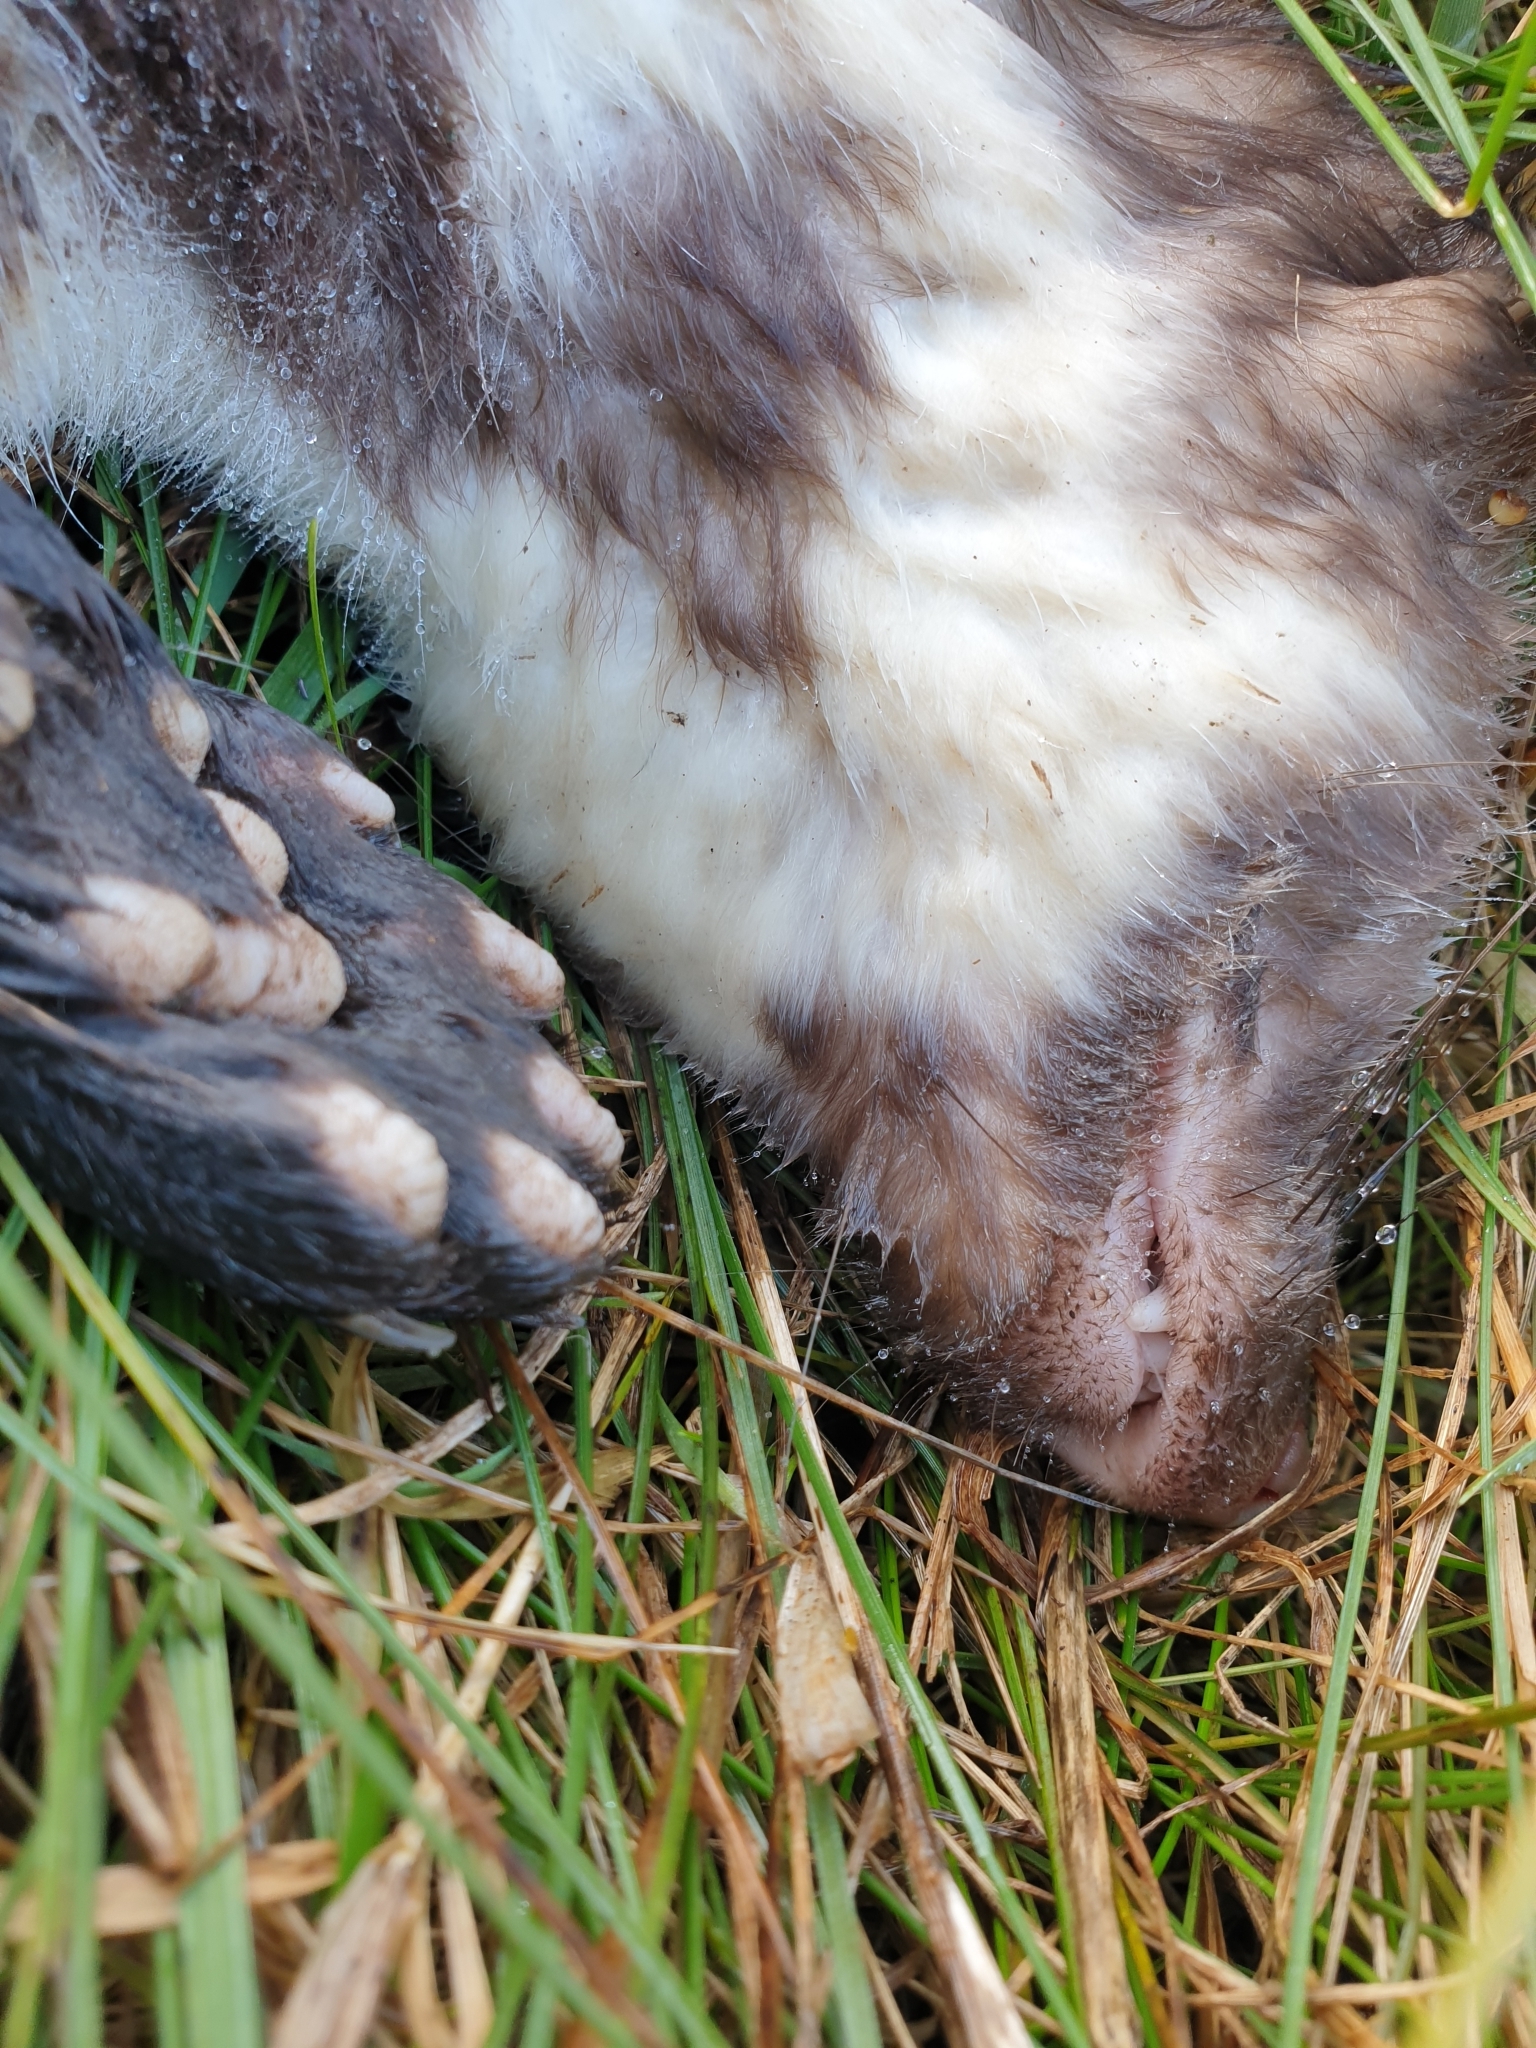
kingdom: Animalia
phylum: Chordata
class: Mammalia
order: Carnivora
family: Mustelidae
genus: Martes
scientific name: Martes foina
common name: Beech marten
